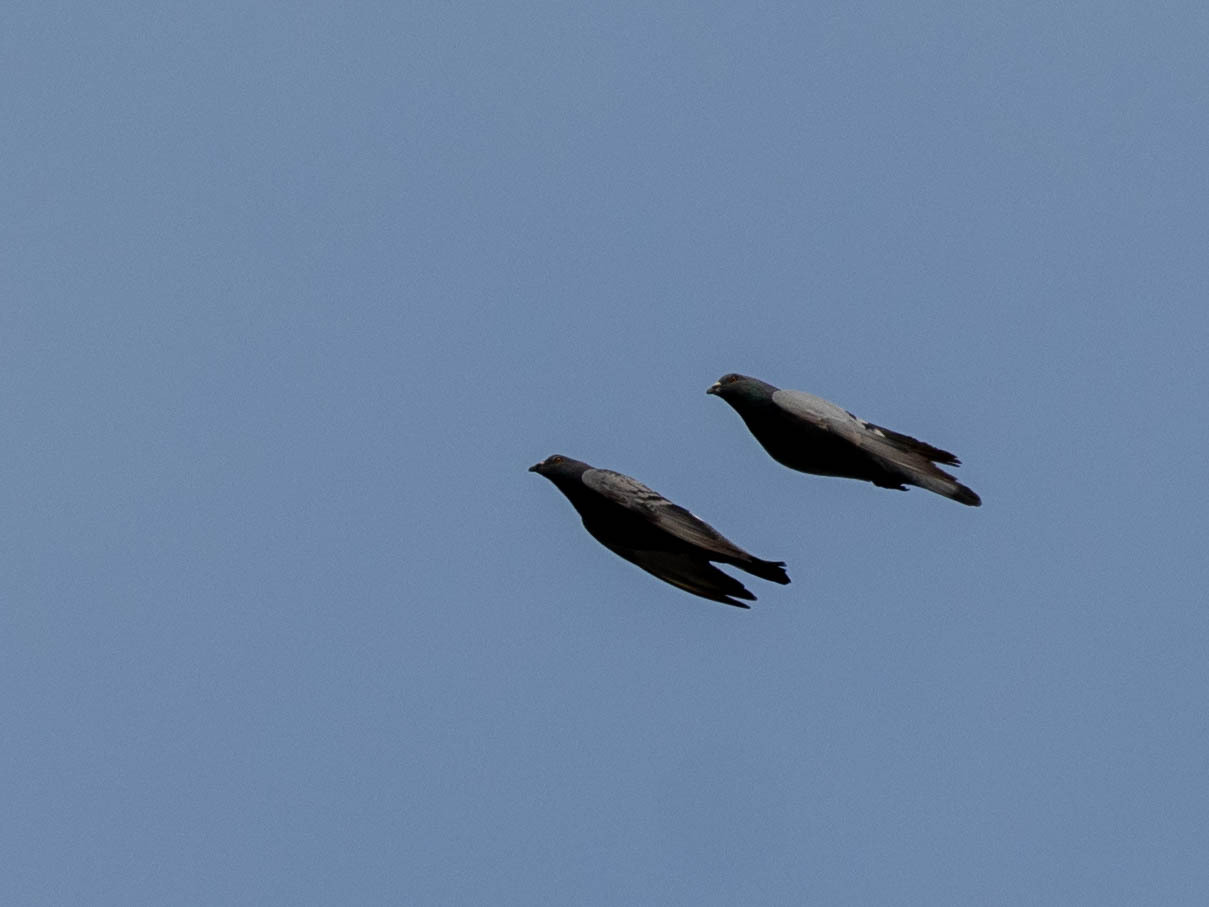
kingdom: Animalia
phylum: Chordata
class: Aves
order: Columbiformes
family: Columbidae
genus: Columba
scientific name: Columba livia
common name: Rock pigeon
